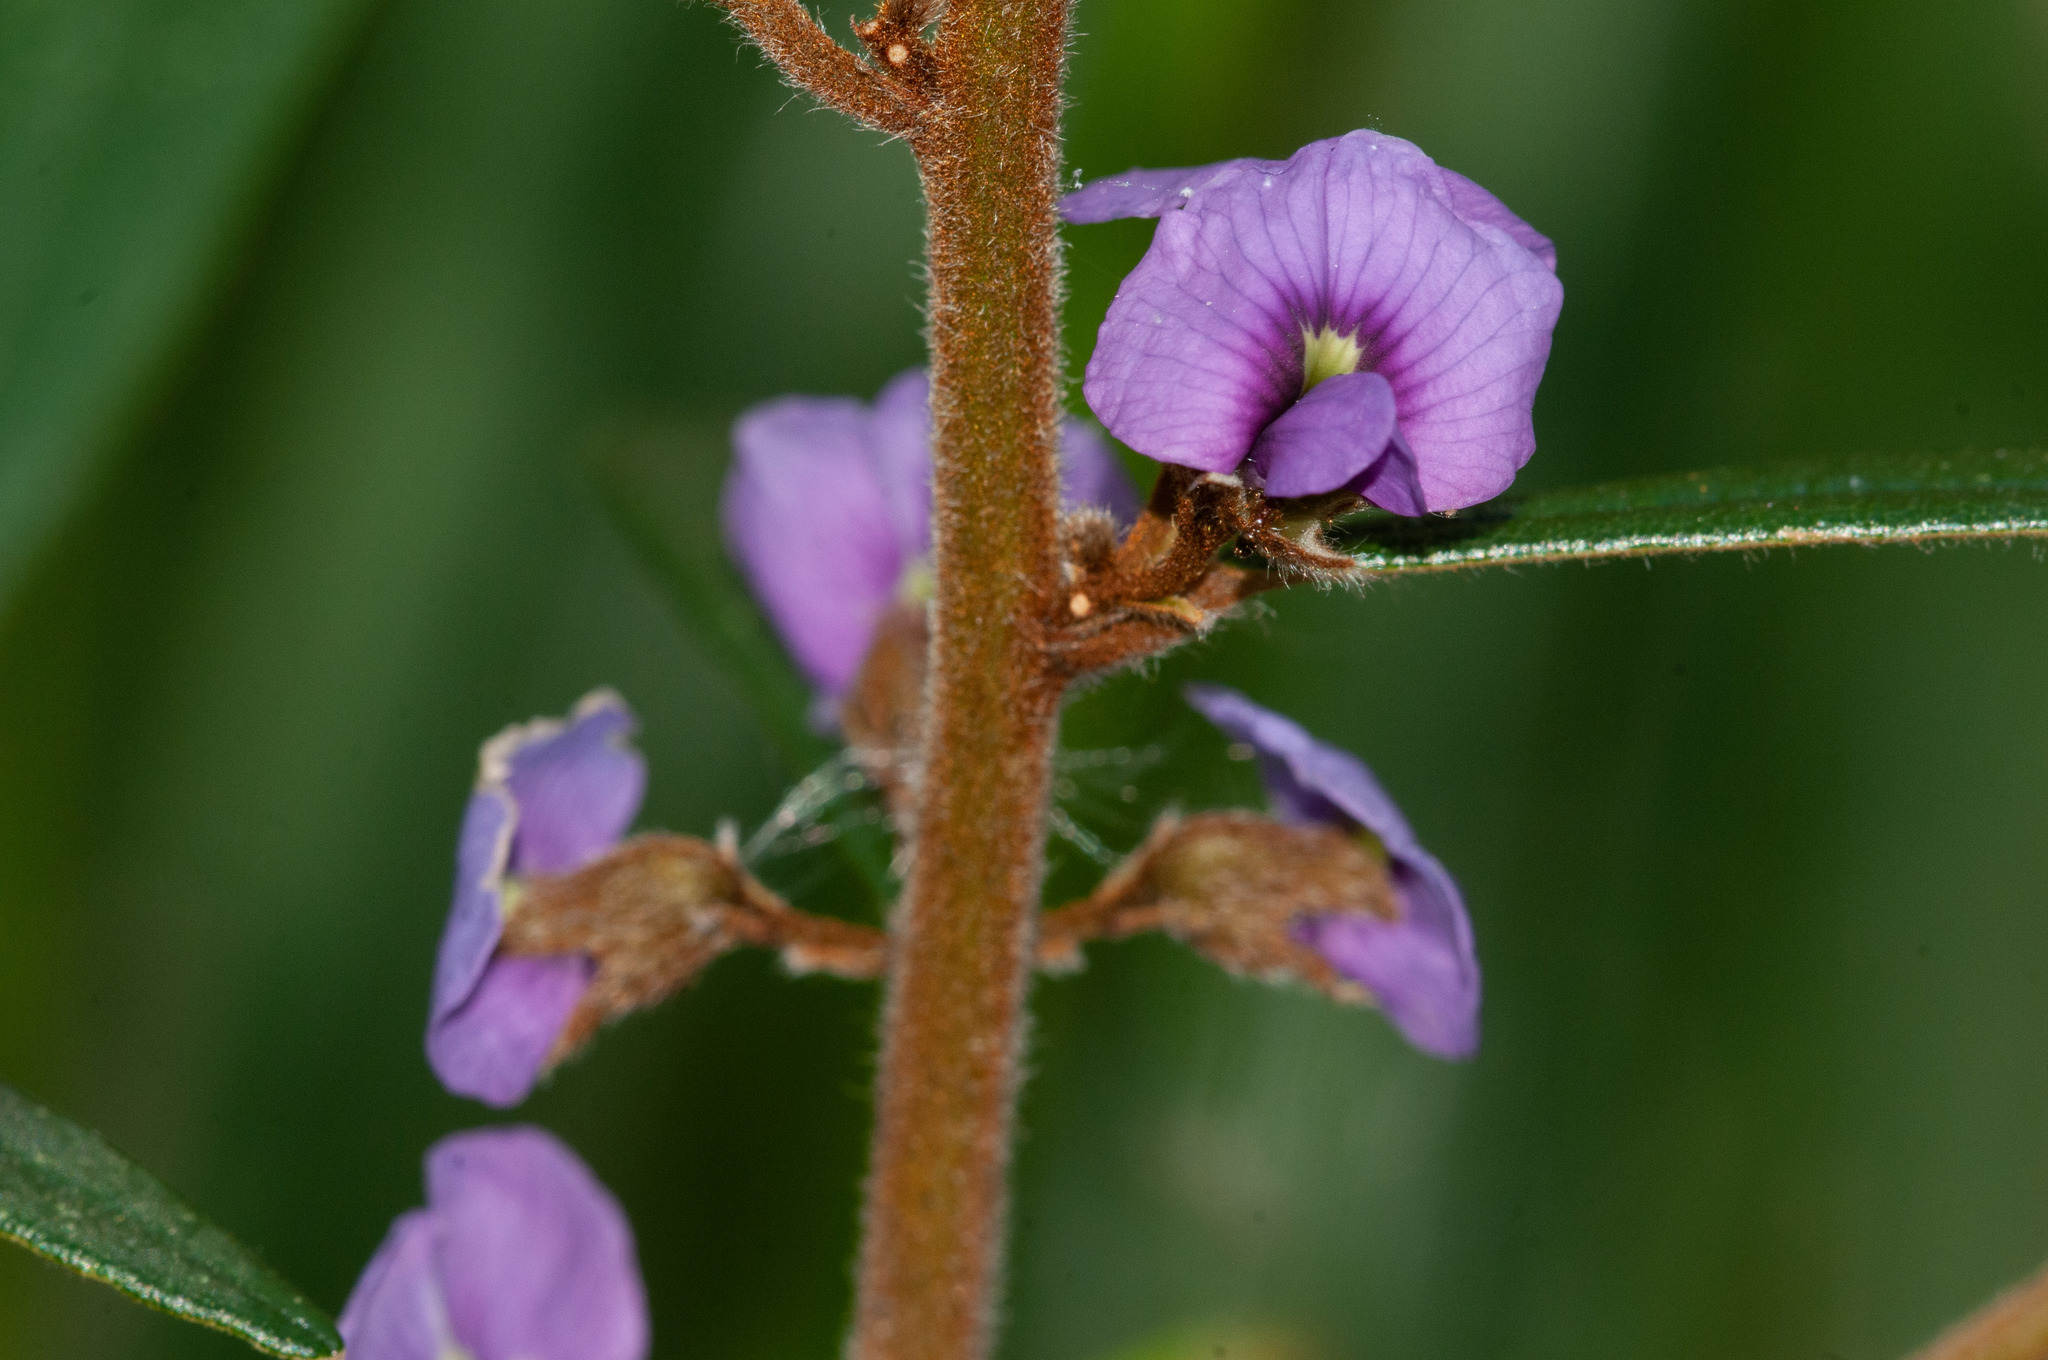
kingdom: Plantae
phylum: Tracheophyta
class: Magnoliopsida
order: Fabales
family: Fabaceae
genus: Hovea
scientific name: Hovea acutifolia
